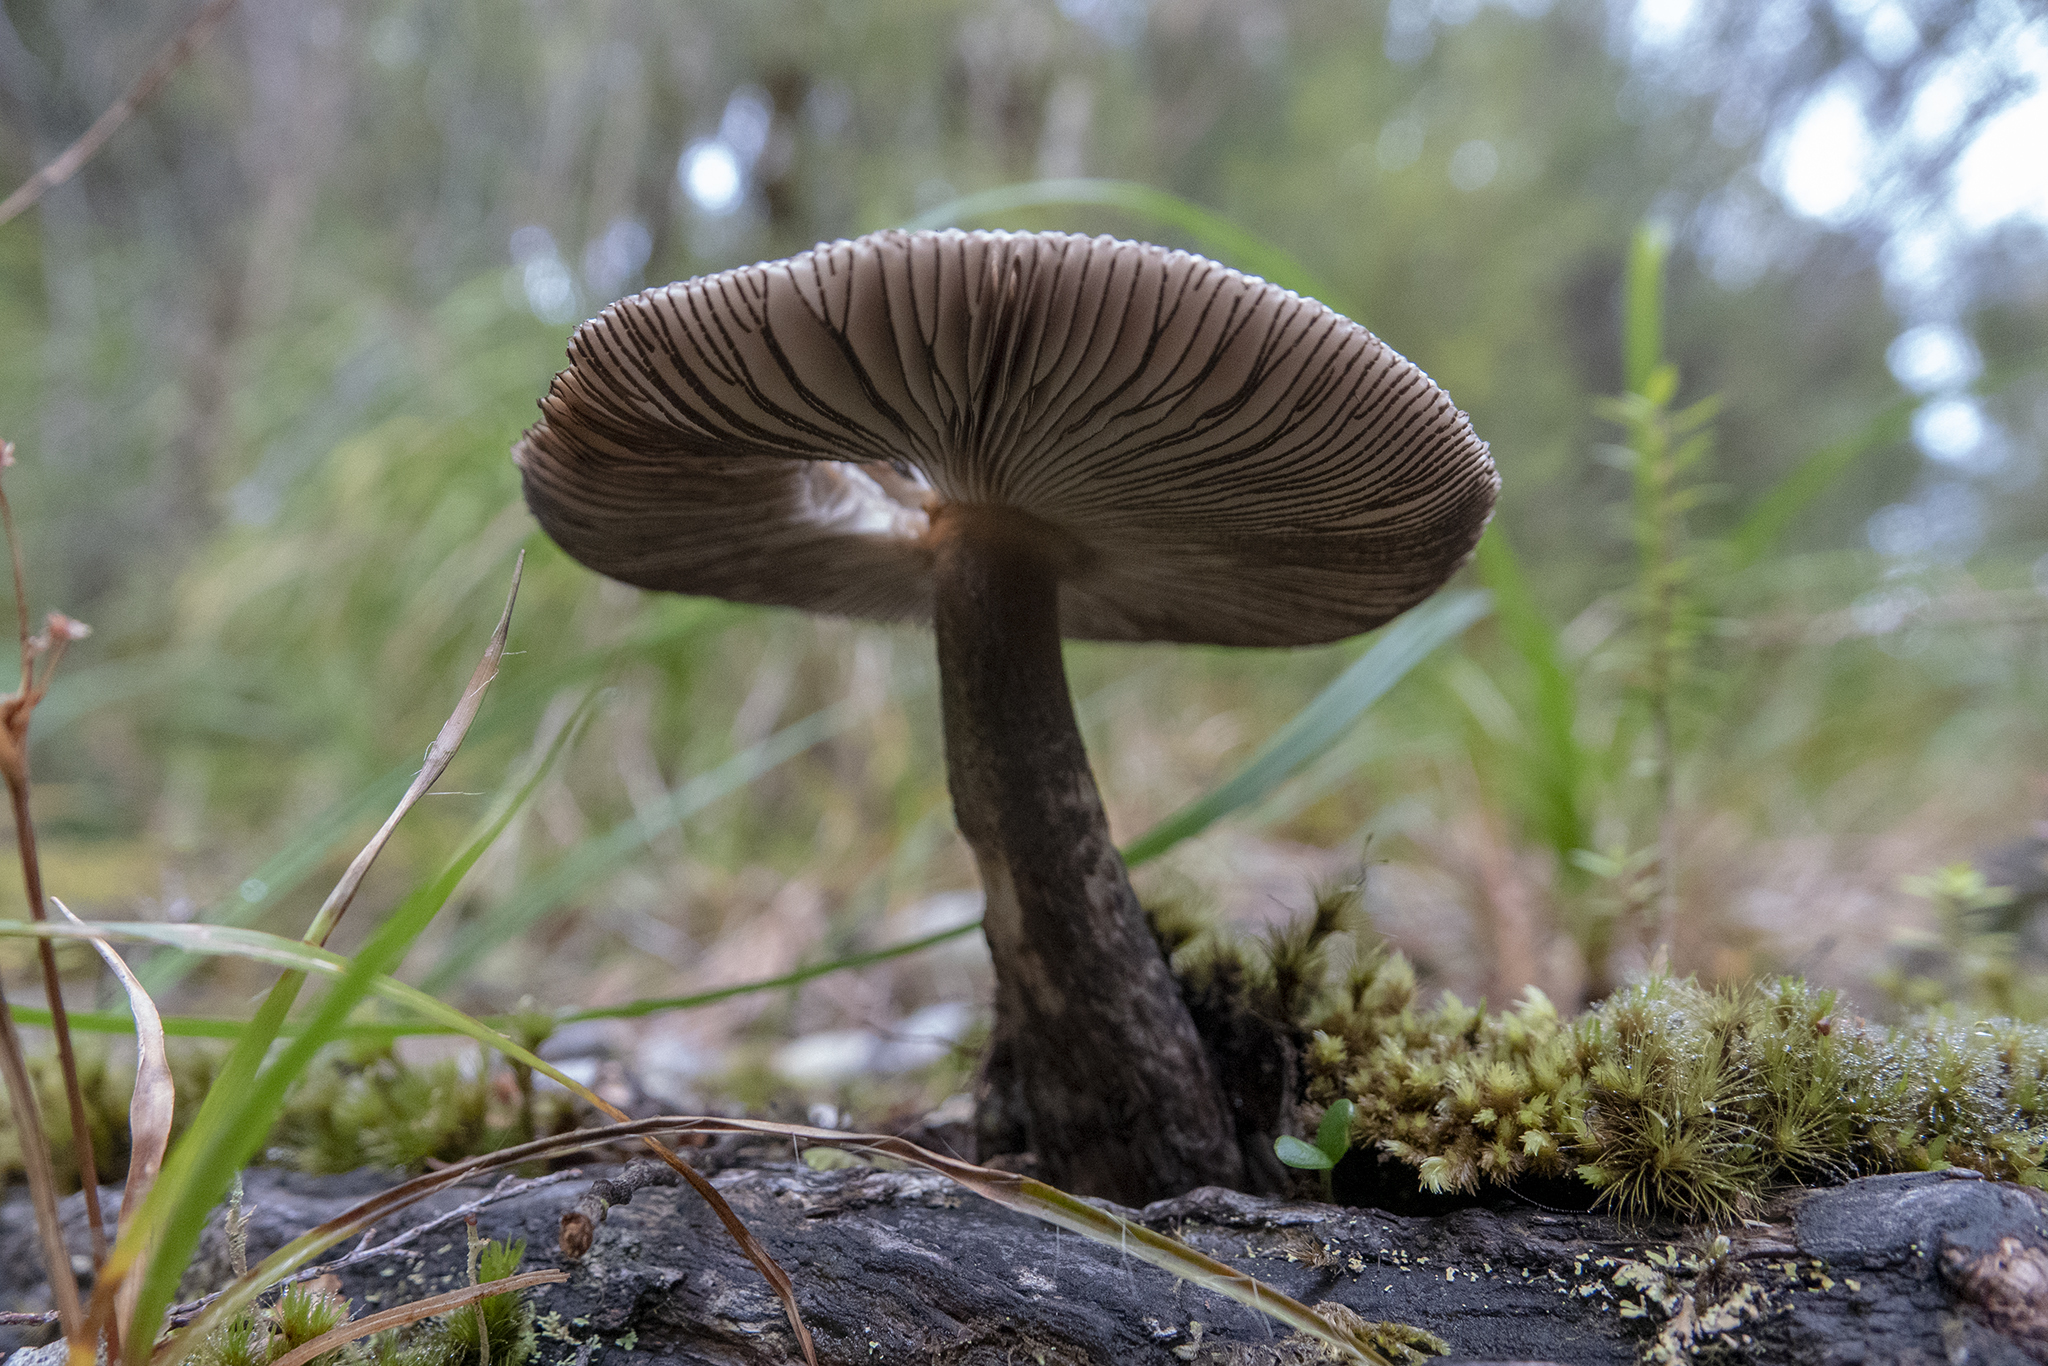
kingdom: Fungi
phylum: Basidiomycota
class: Agaricomycetes
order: Agaricales
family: Amanitaceae
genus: Amanita
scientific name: Amanita pekeoides
